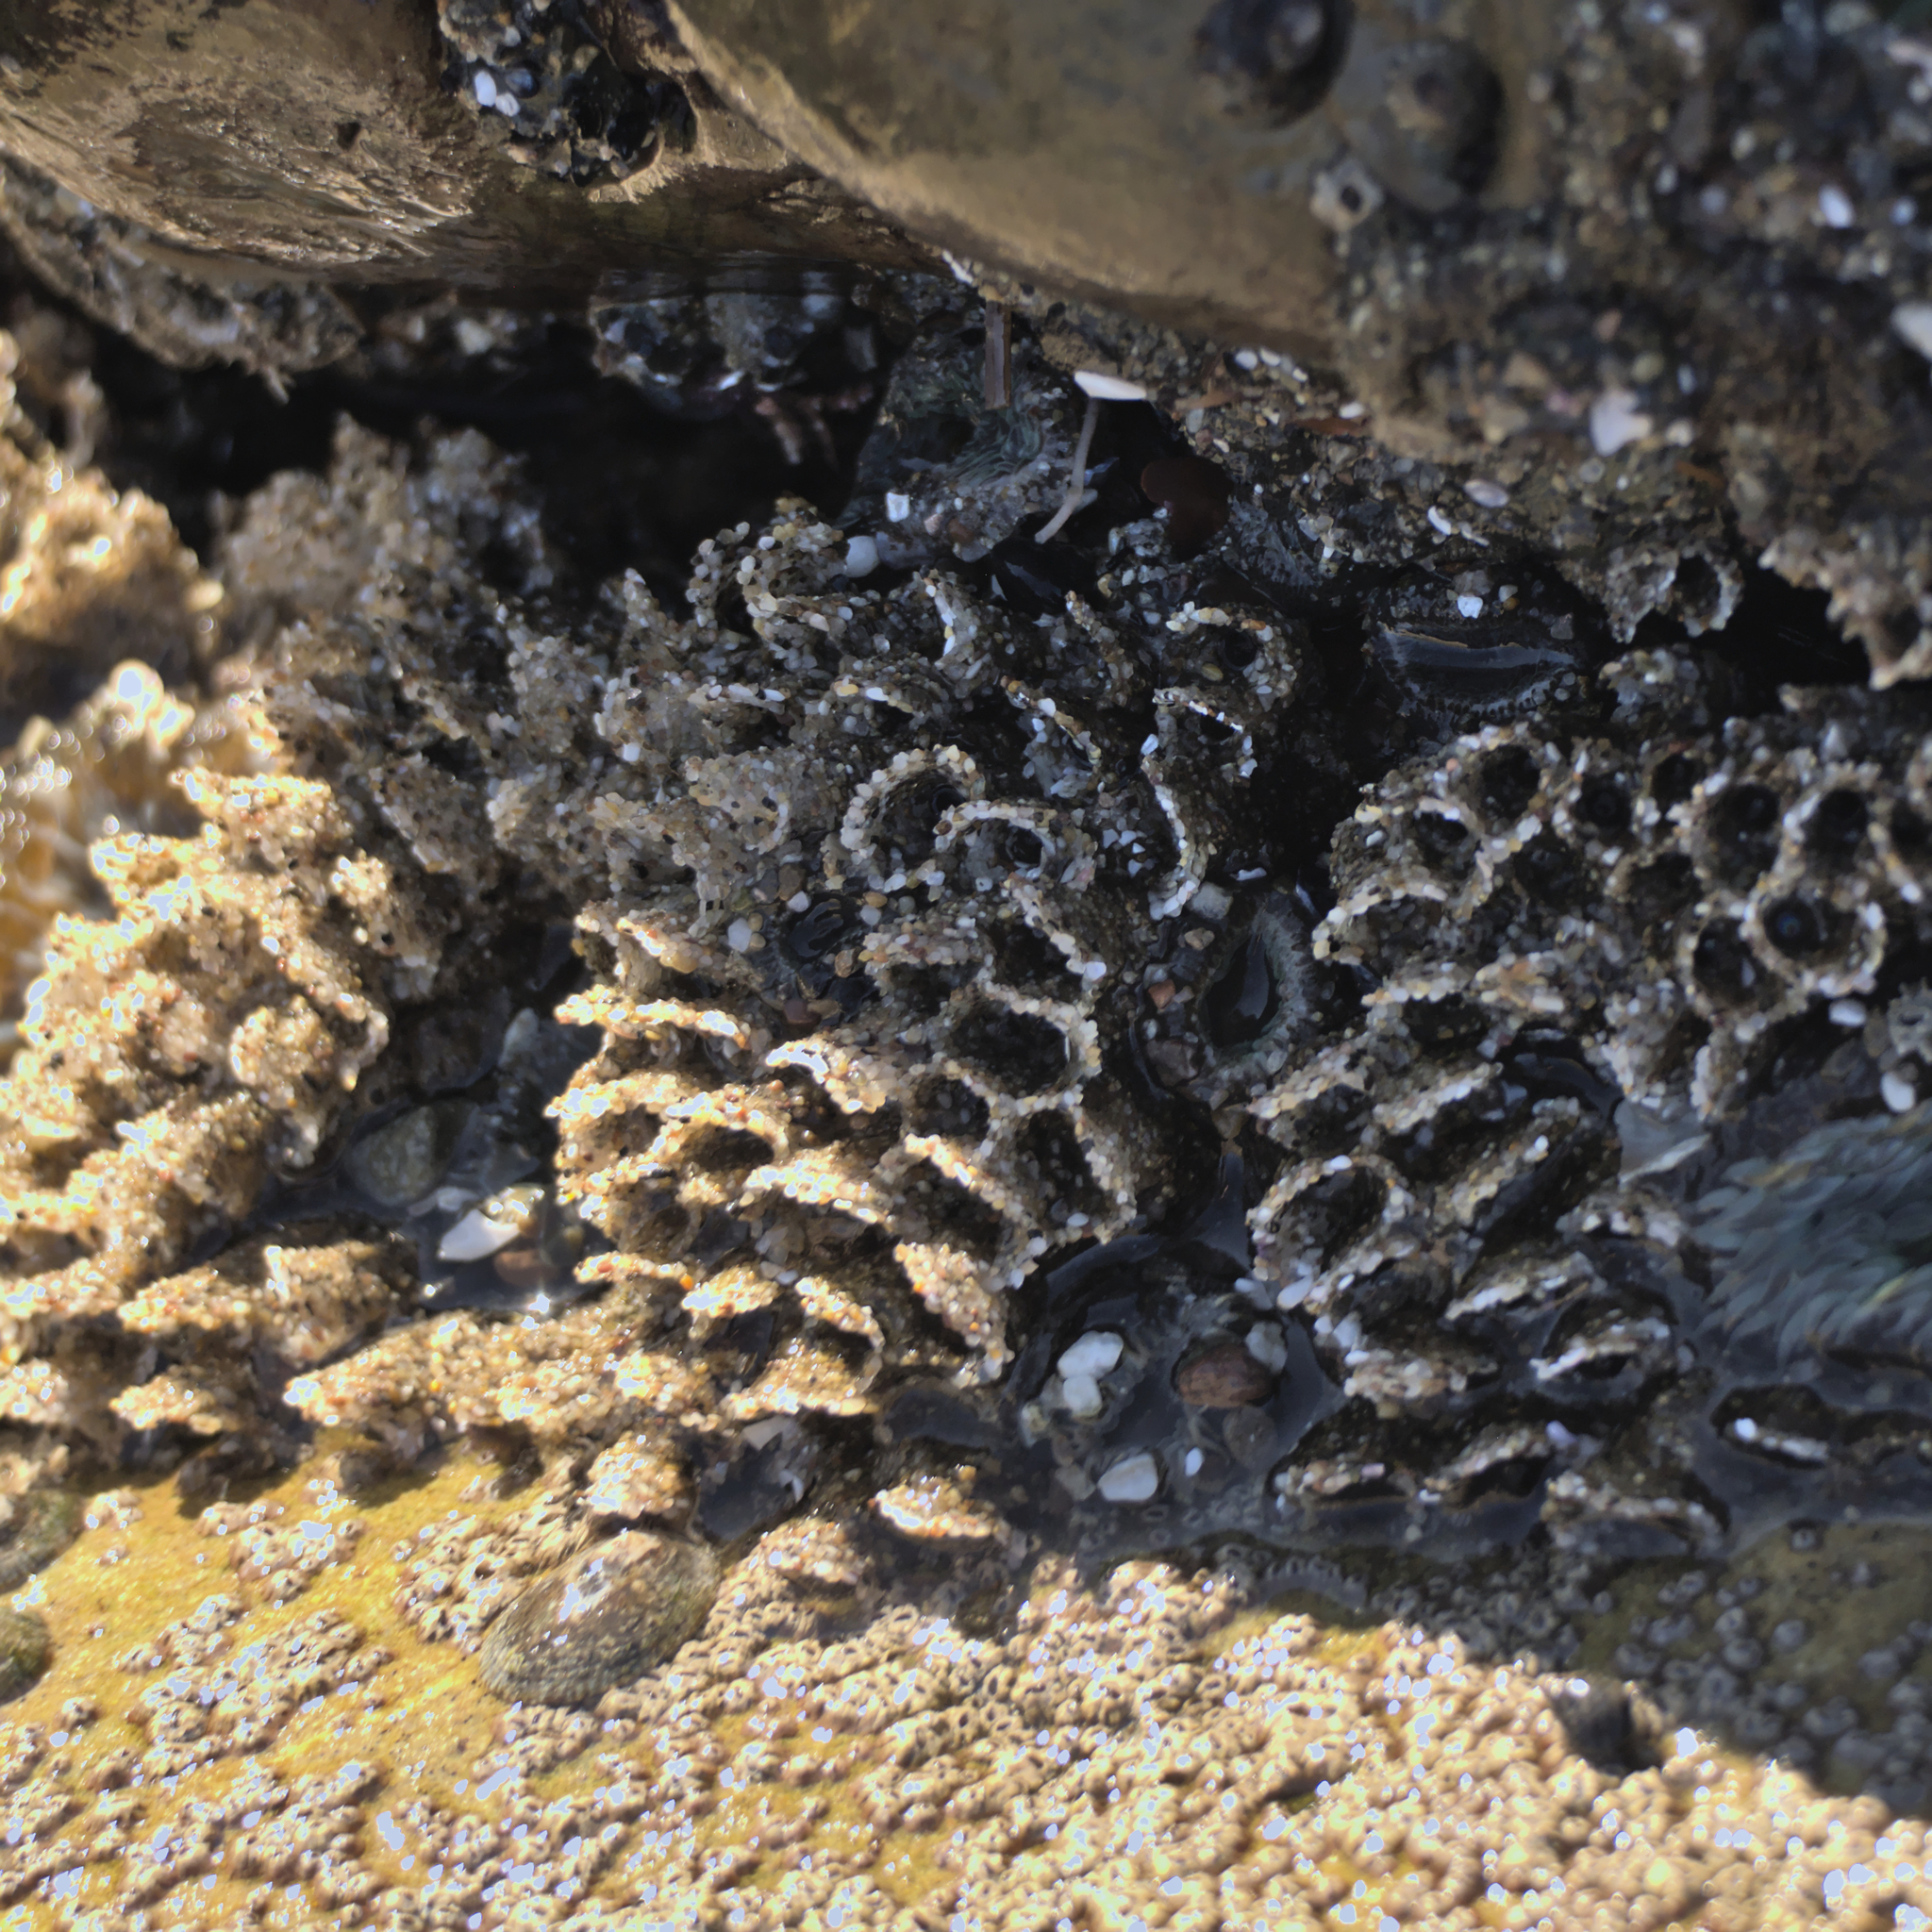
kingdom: Animalia
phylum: Annelida
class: Polychaeta
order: Sabellida
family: Sabellariidae
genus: Phragmatopoma
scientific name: Phragmatopoma californica
